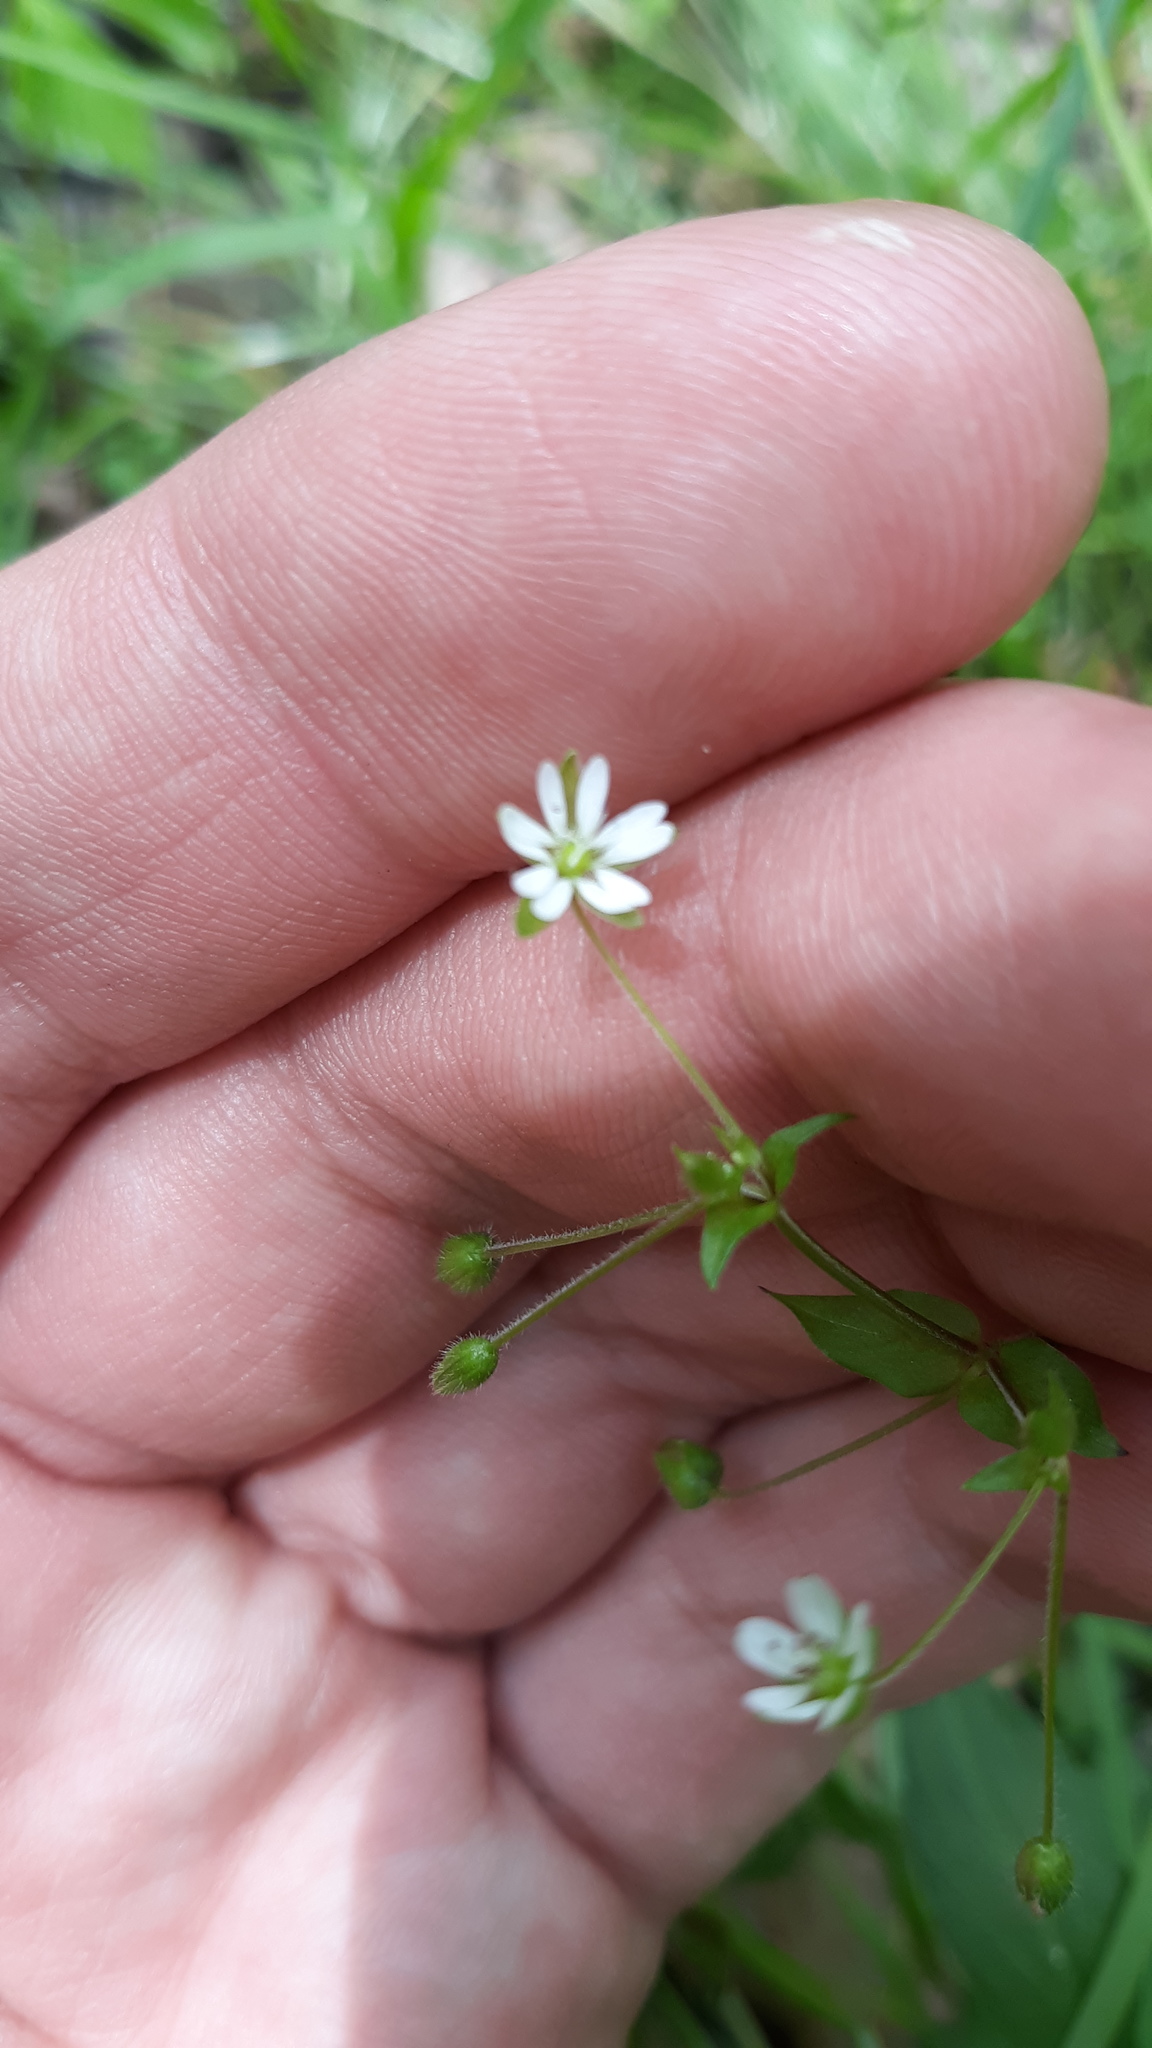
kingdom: Plantae
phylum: Tracheophyta
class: Magnoliopsida
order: Caryophyllales
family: Caryophyllaceae
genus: Stellaria
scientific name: Stellaria media
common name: Common chickweed
